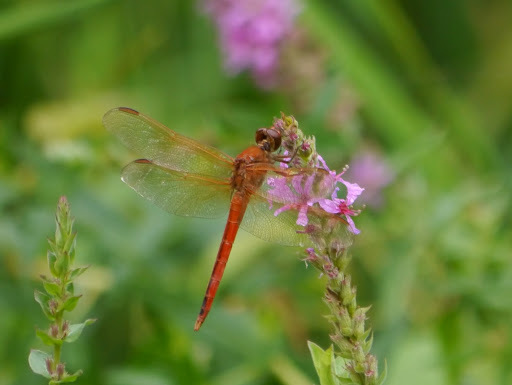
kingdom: Animalia
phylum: Arthropoda
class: Insecta
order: Odonata
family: Libellulidae
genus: Libellula
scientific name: Libellula needhami
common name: Needham's skimmer
